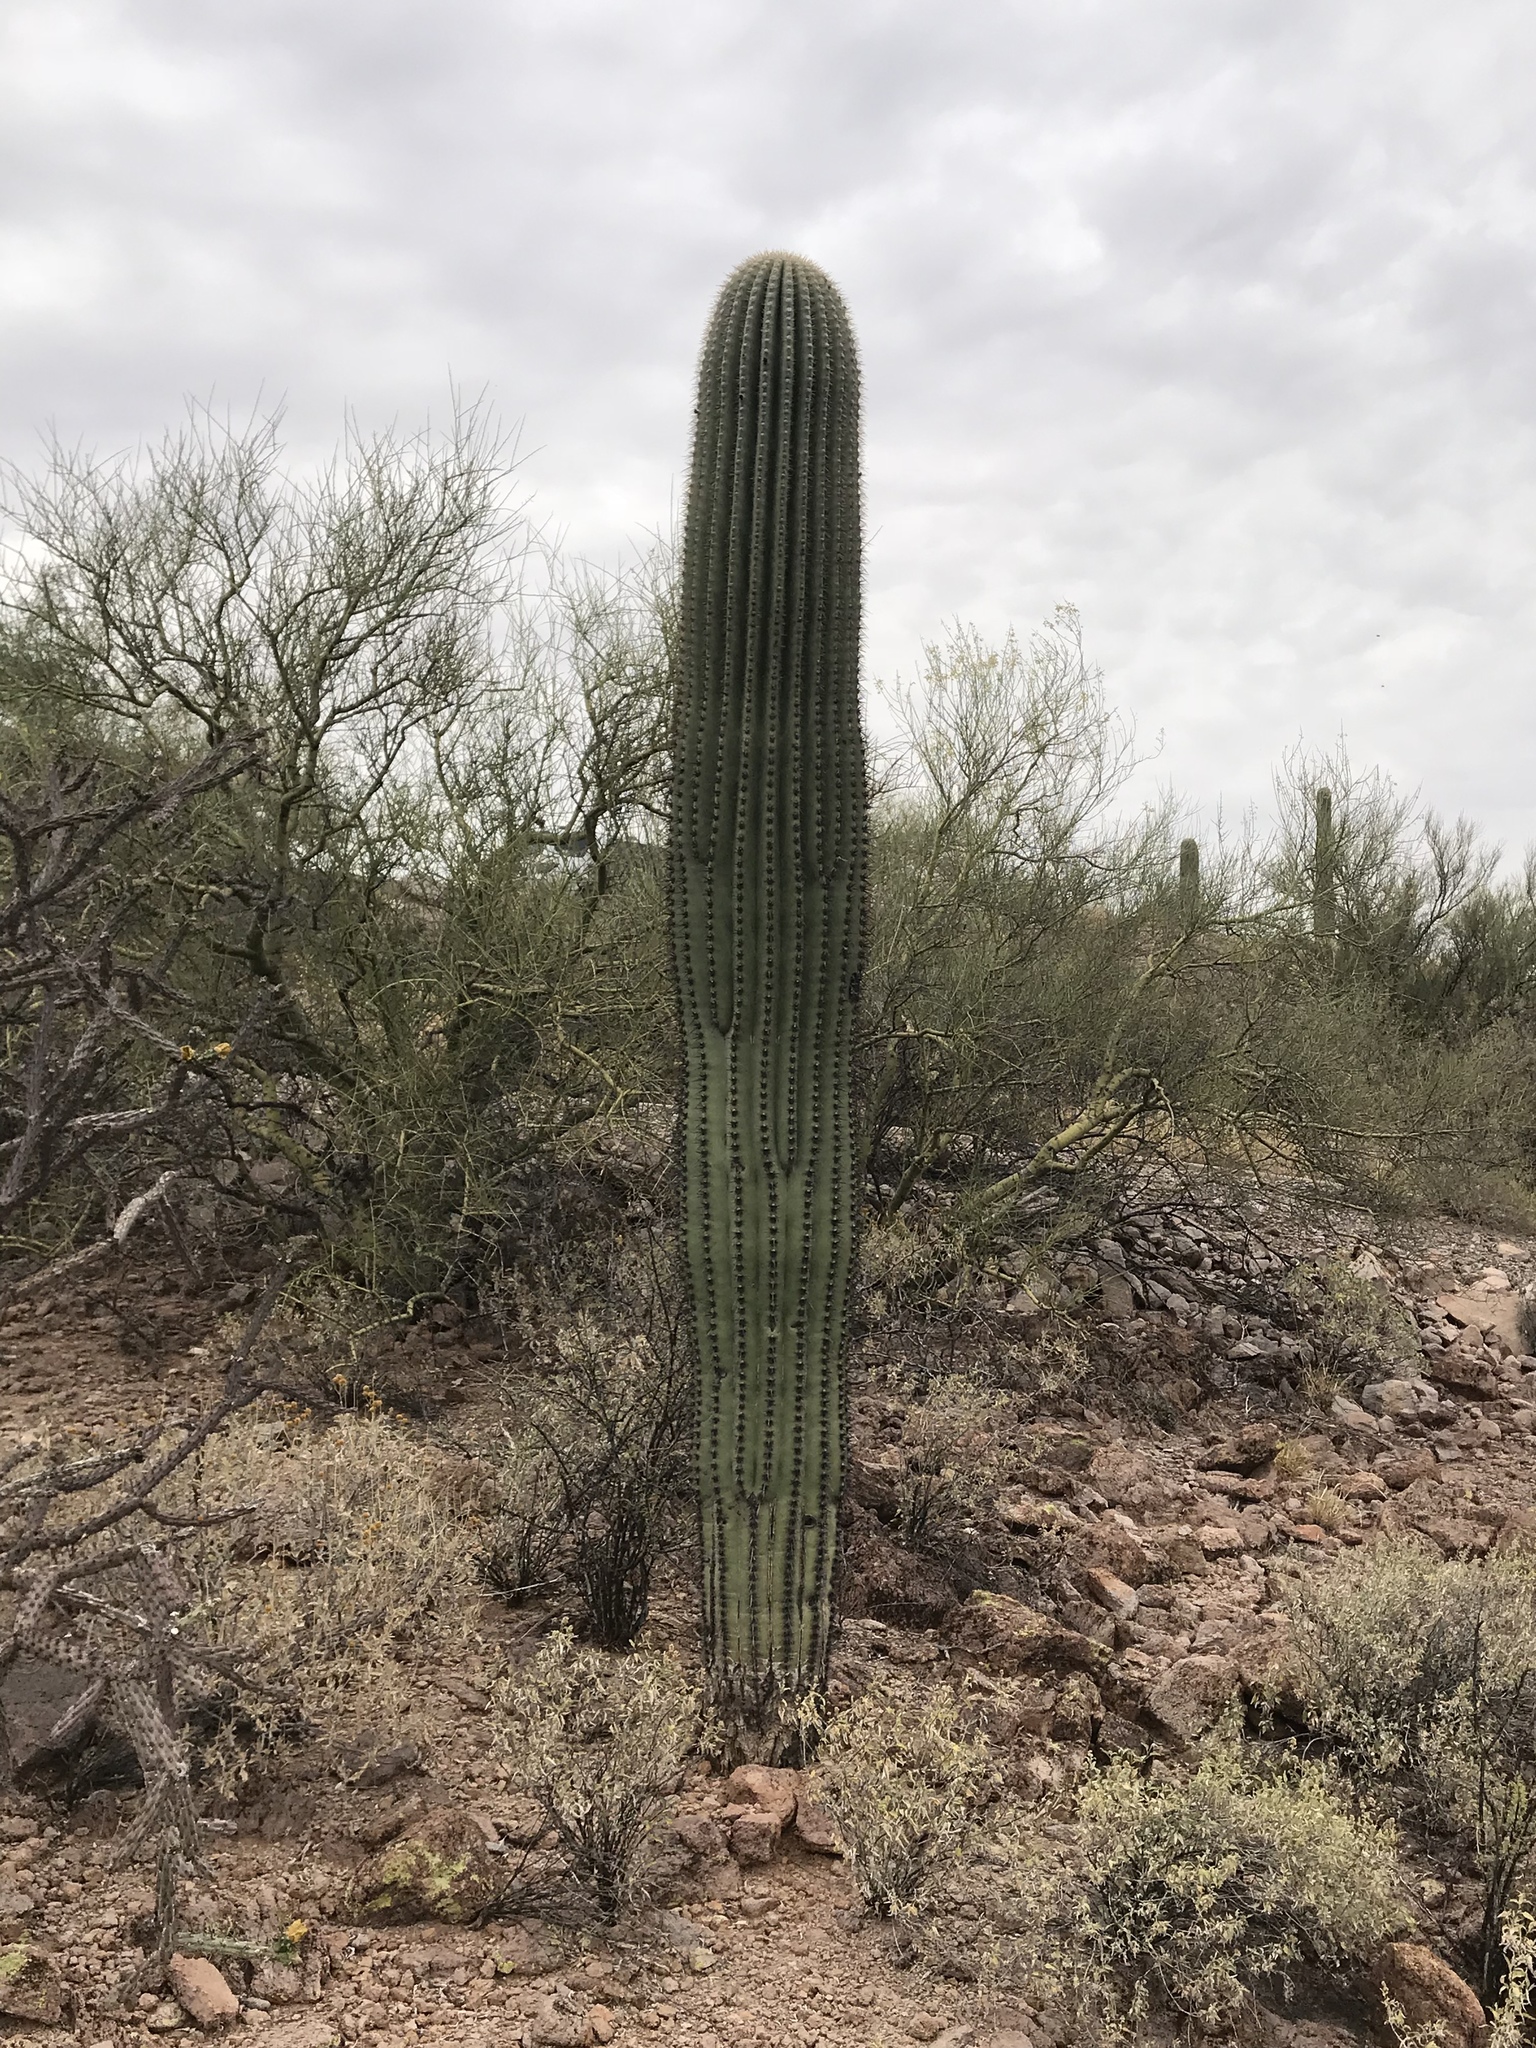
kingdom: Plantae
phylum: Tracheophyta
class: Magnoliopsida
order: Caryophyllales
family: Cactaceae
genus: Carnegiea
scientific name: Carnegiea gigantea
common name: Saguaro
